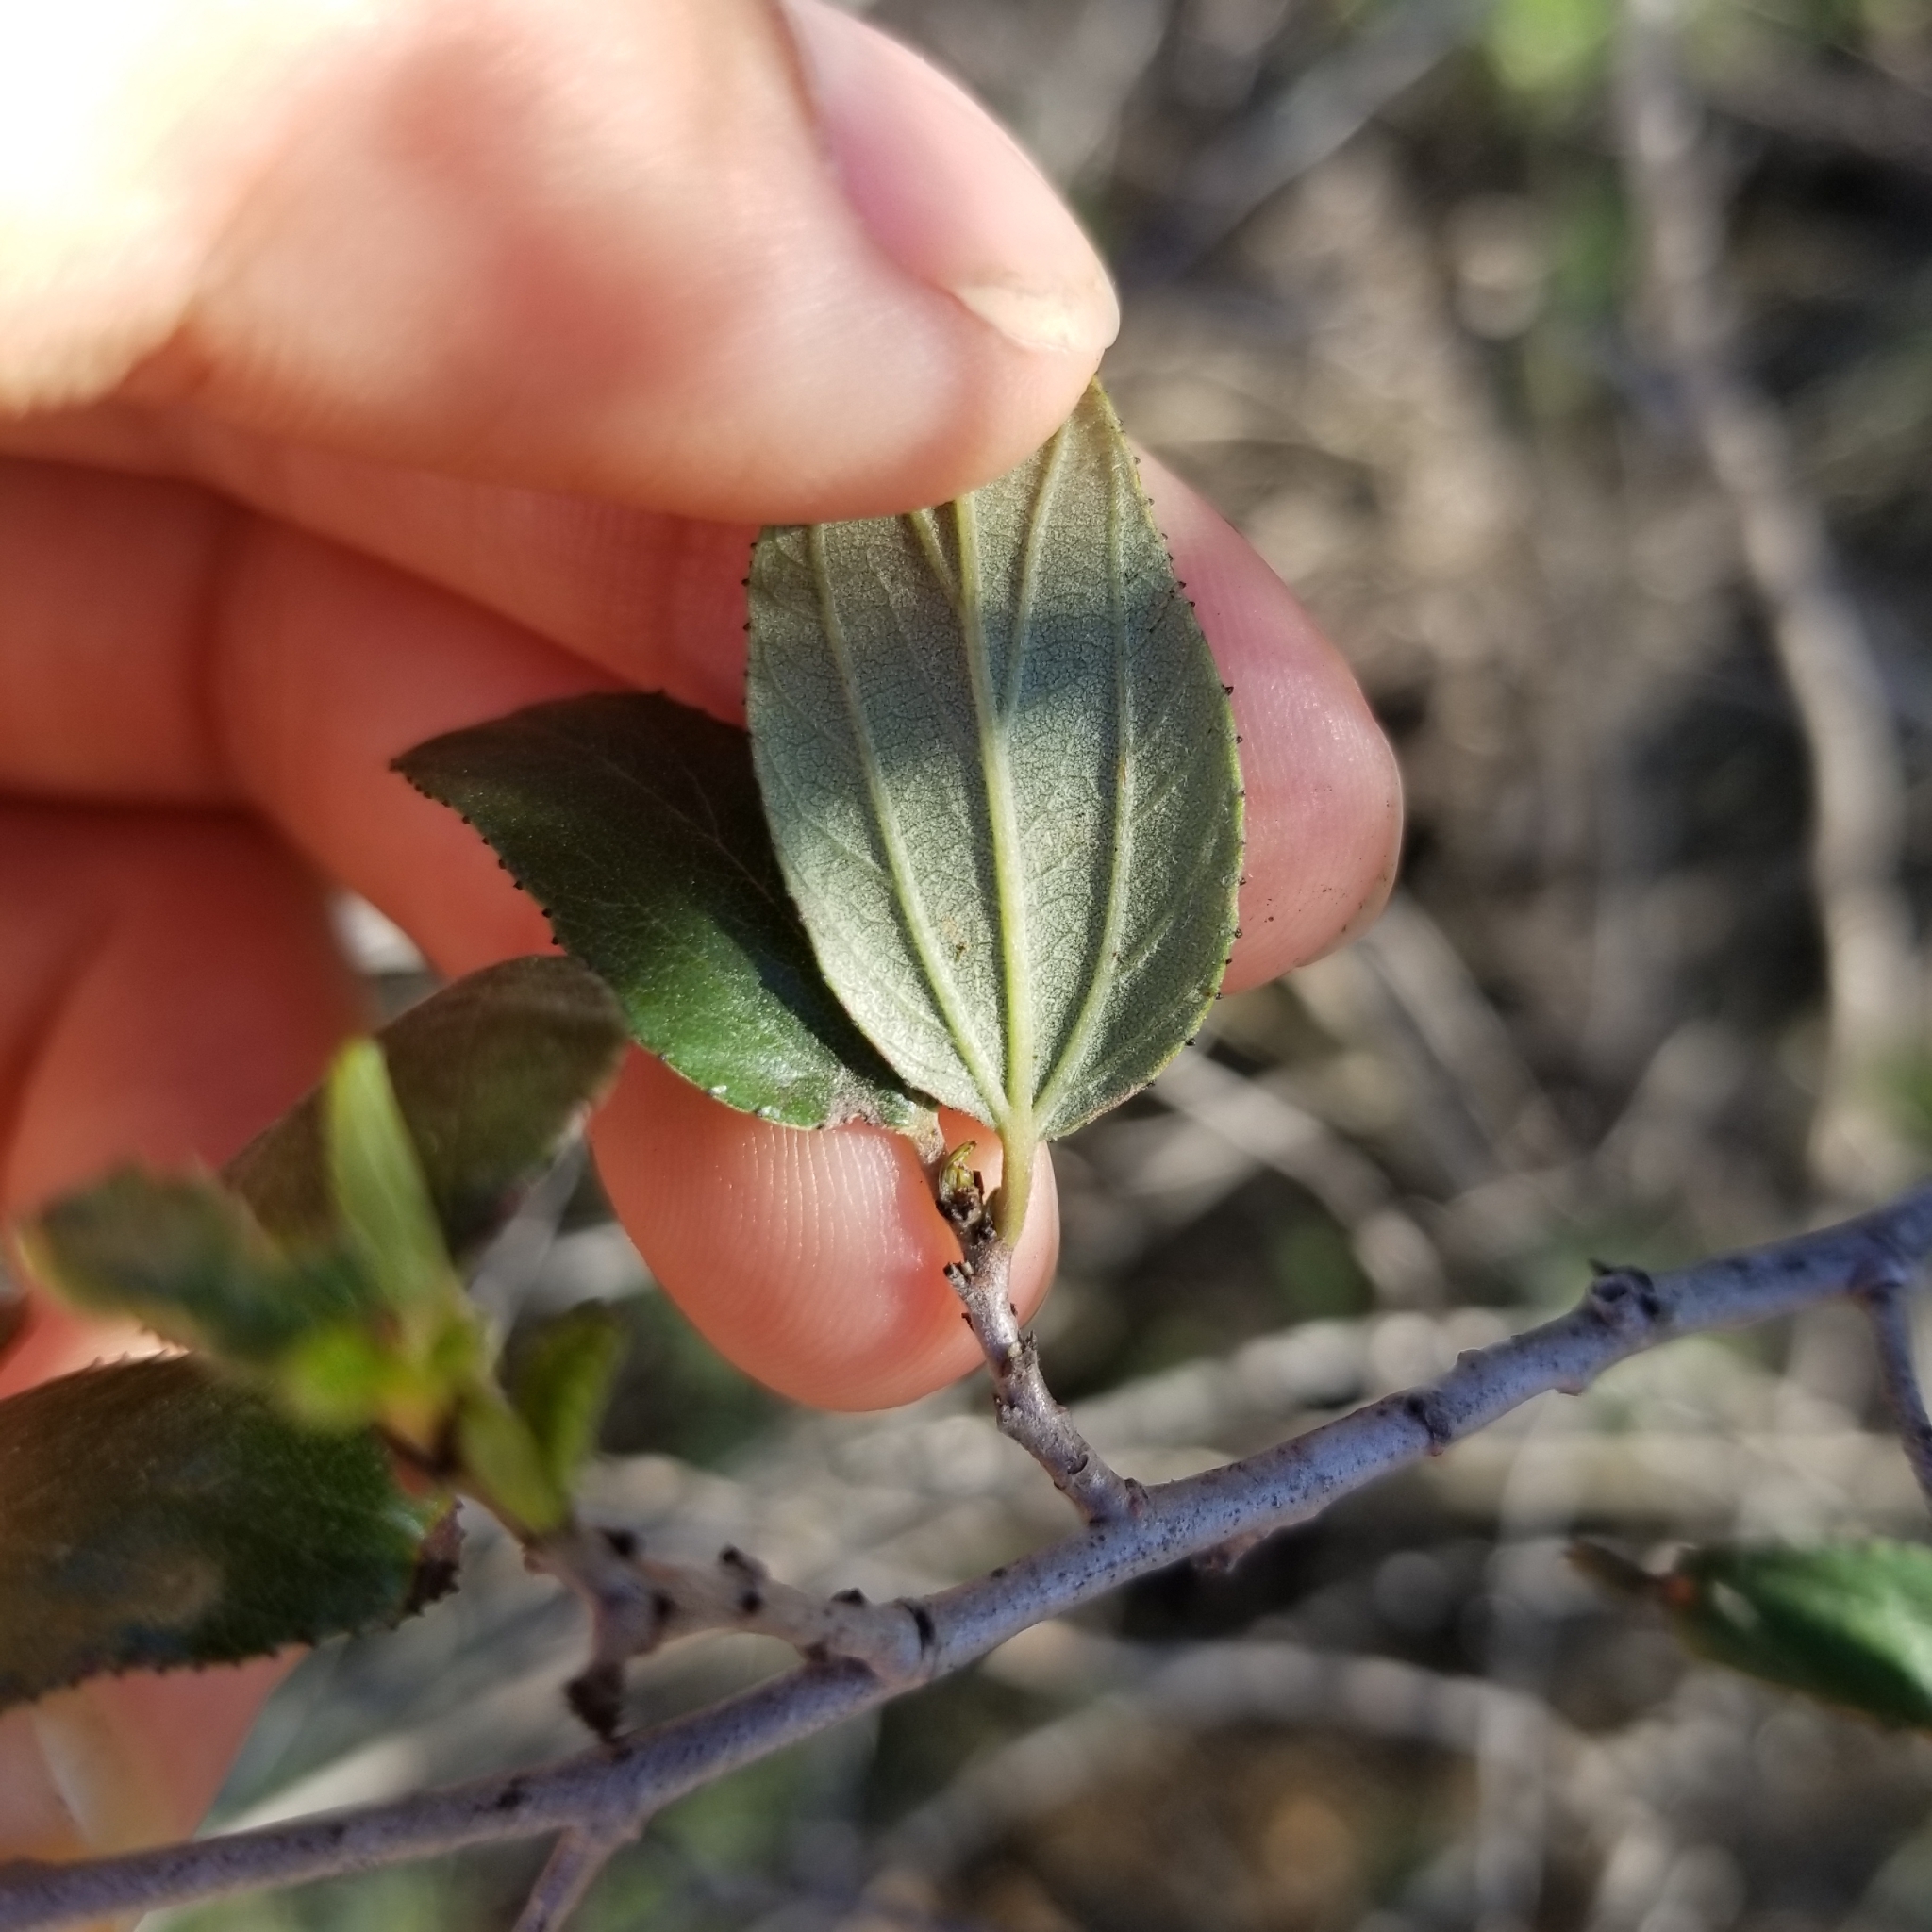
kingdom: Plantae
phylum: Tracheophyta
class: Magnoliopsida
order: Rosales
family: Rhamnaceae
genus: Ceanothus
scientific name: Ceanothus tomentosus
